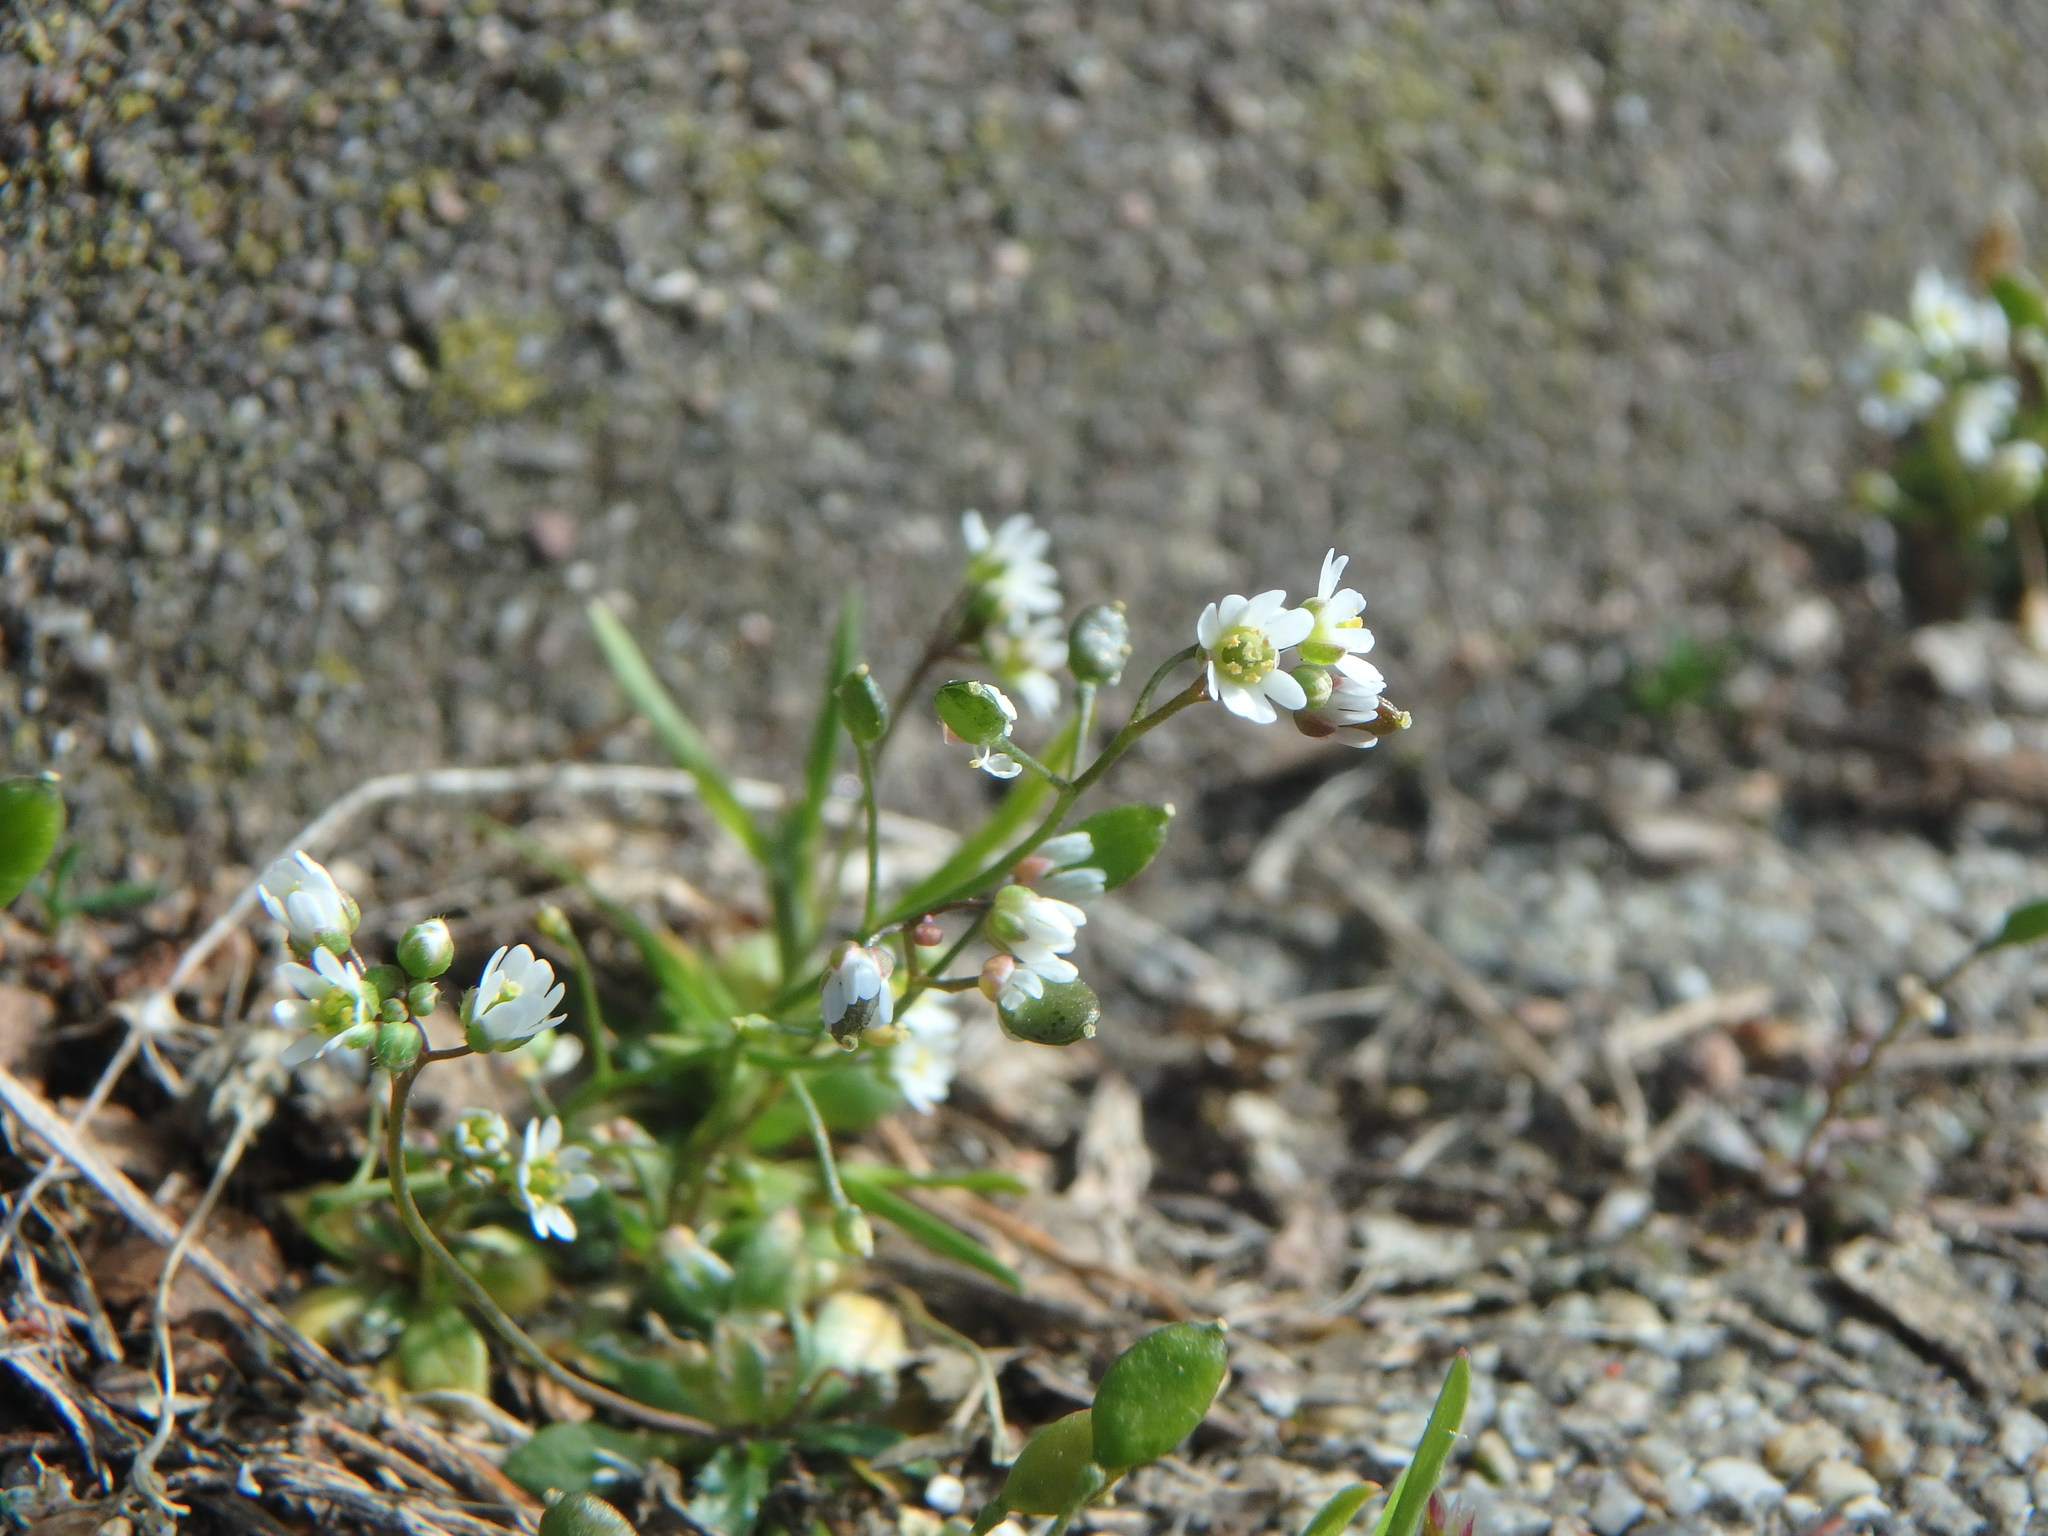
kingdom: Plantae
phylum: Tracheophyta
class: Magnoliopsida
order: Brassicales
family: Brassicaceae
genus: Draba
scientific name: Draba verna
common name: Spring draba
